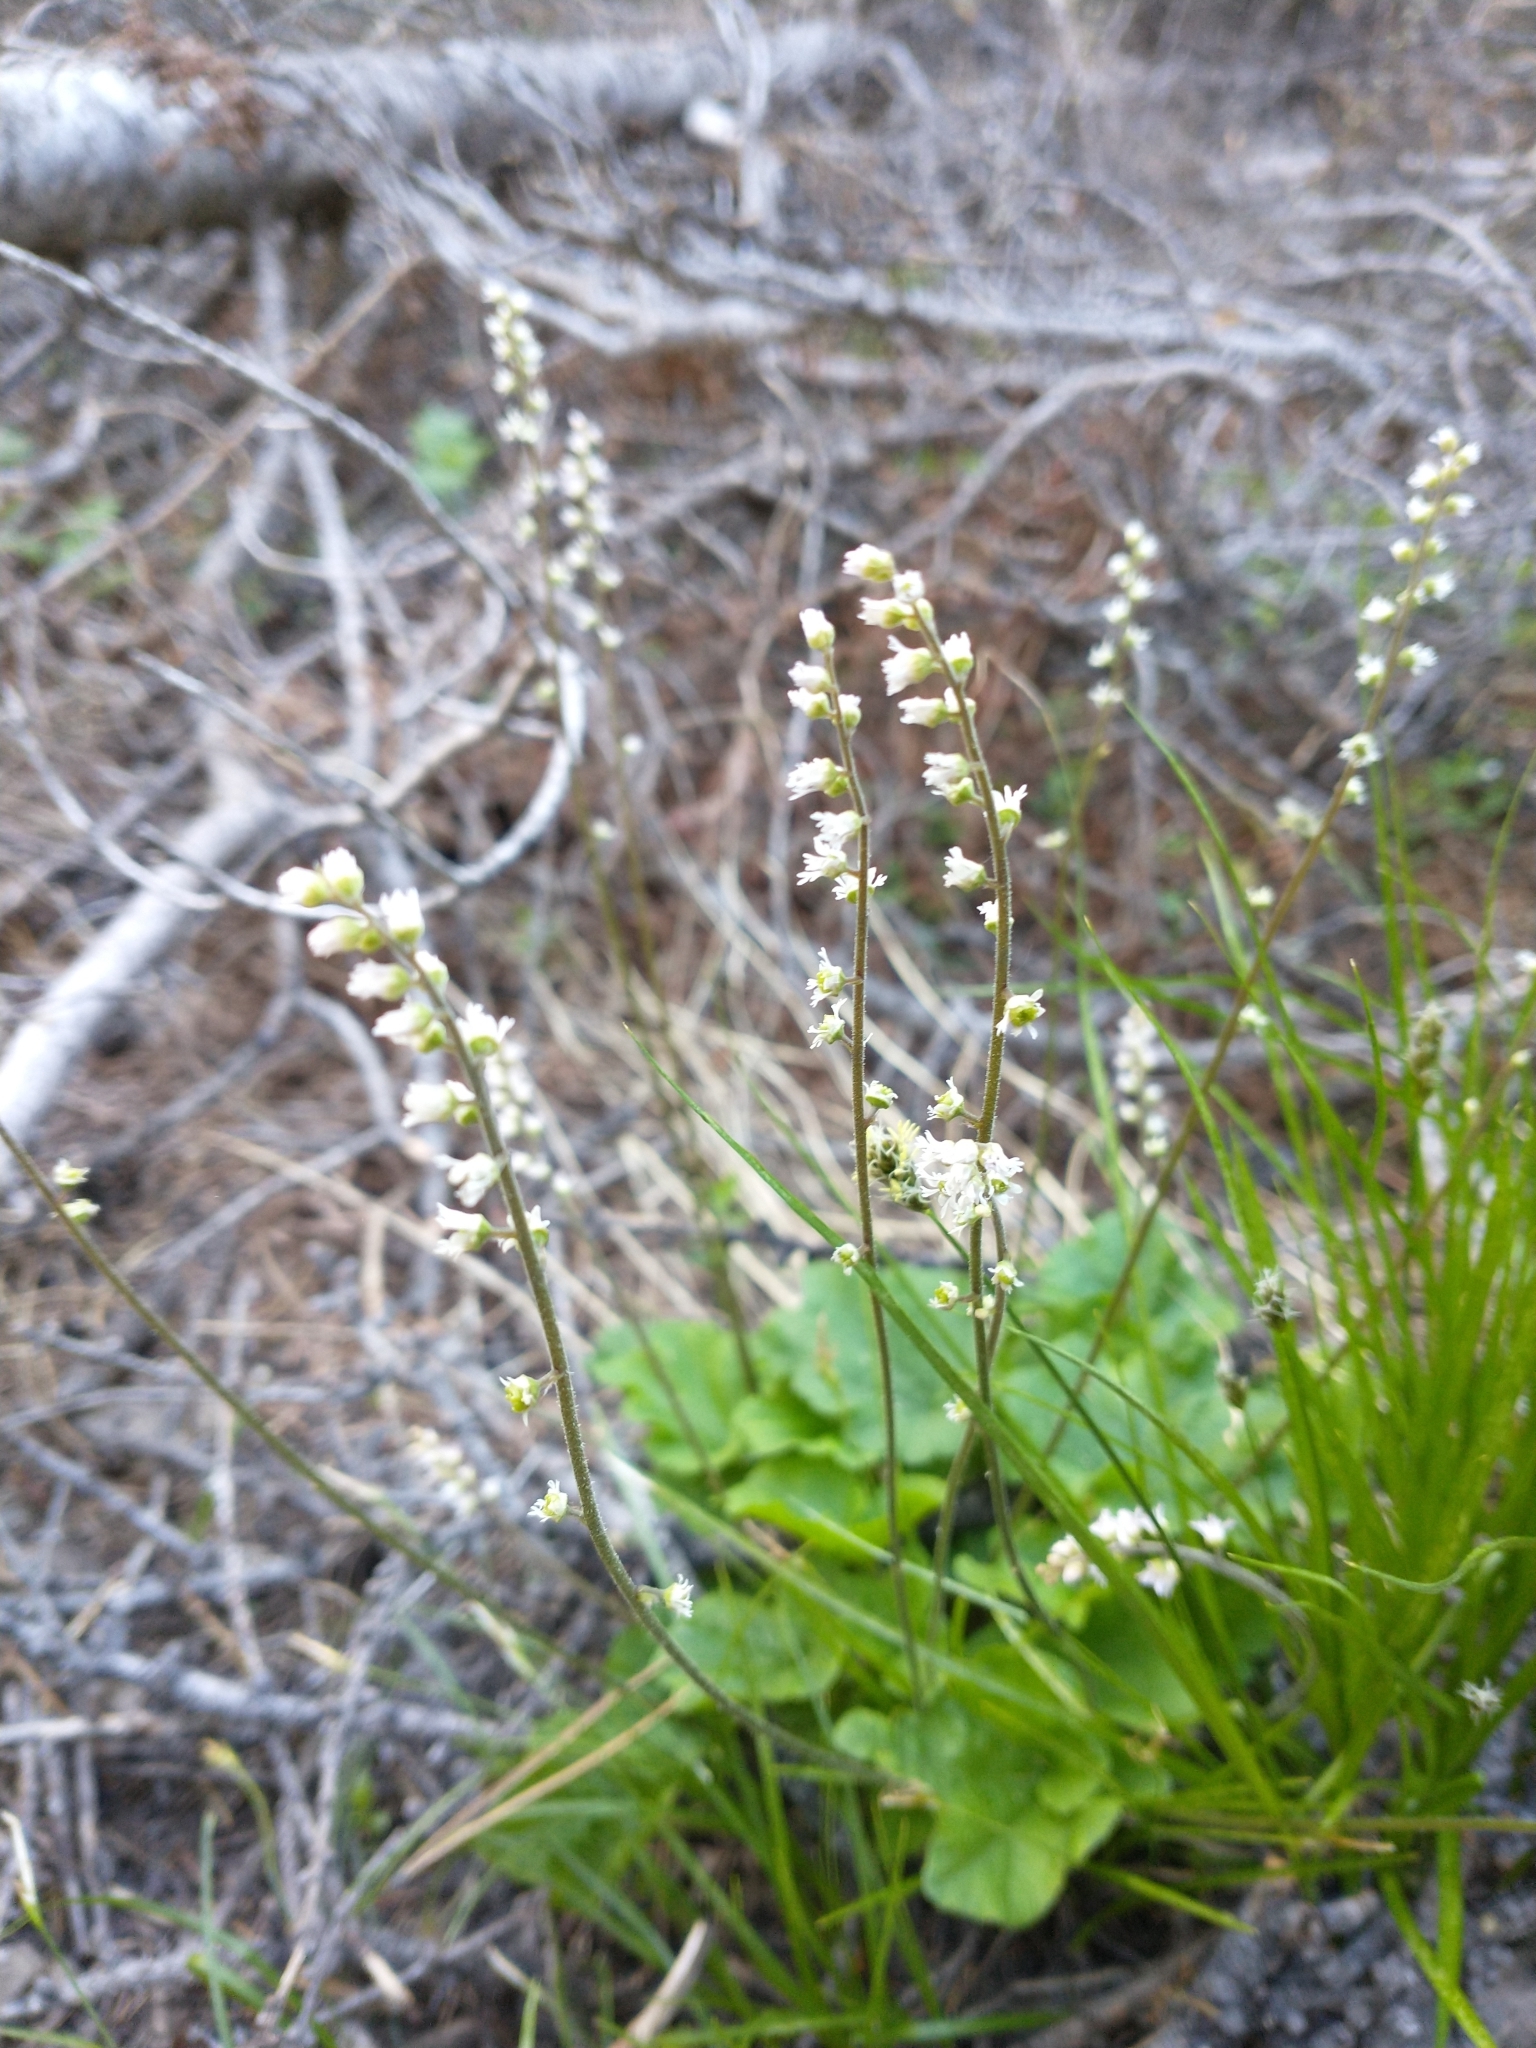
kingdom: Plantae
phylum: Tracheophyta
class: Magnoliopsida
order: Saxifragales
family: Saxifragaceae
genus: Ozomelis
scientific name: Ozomelis trifida
